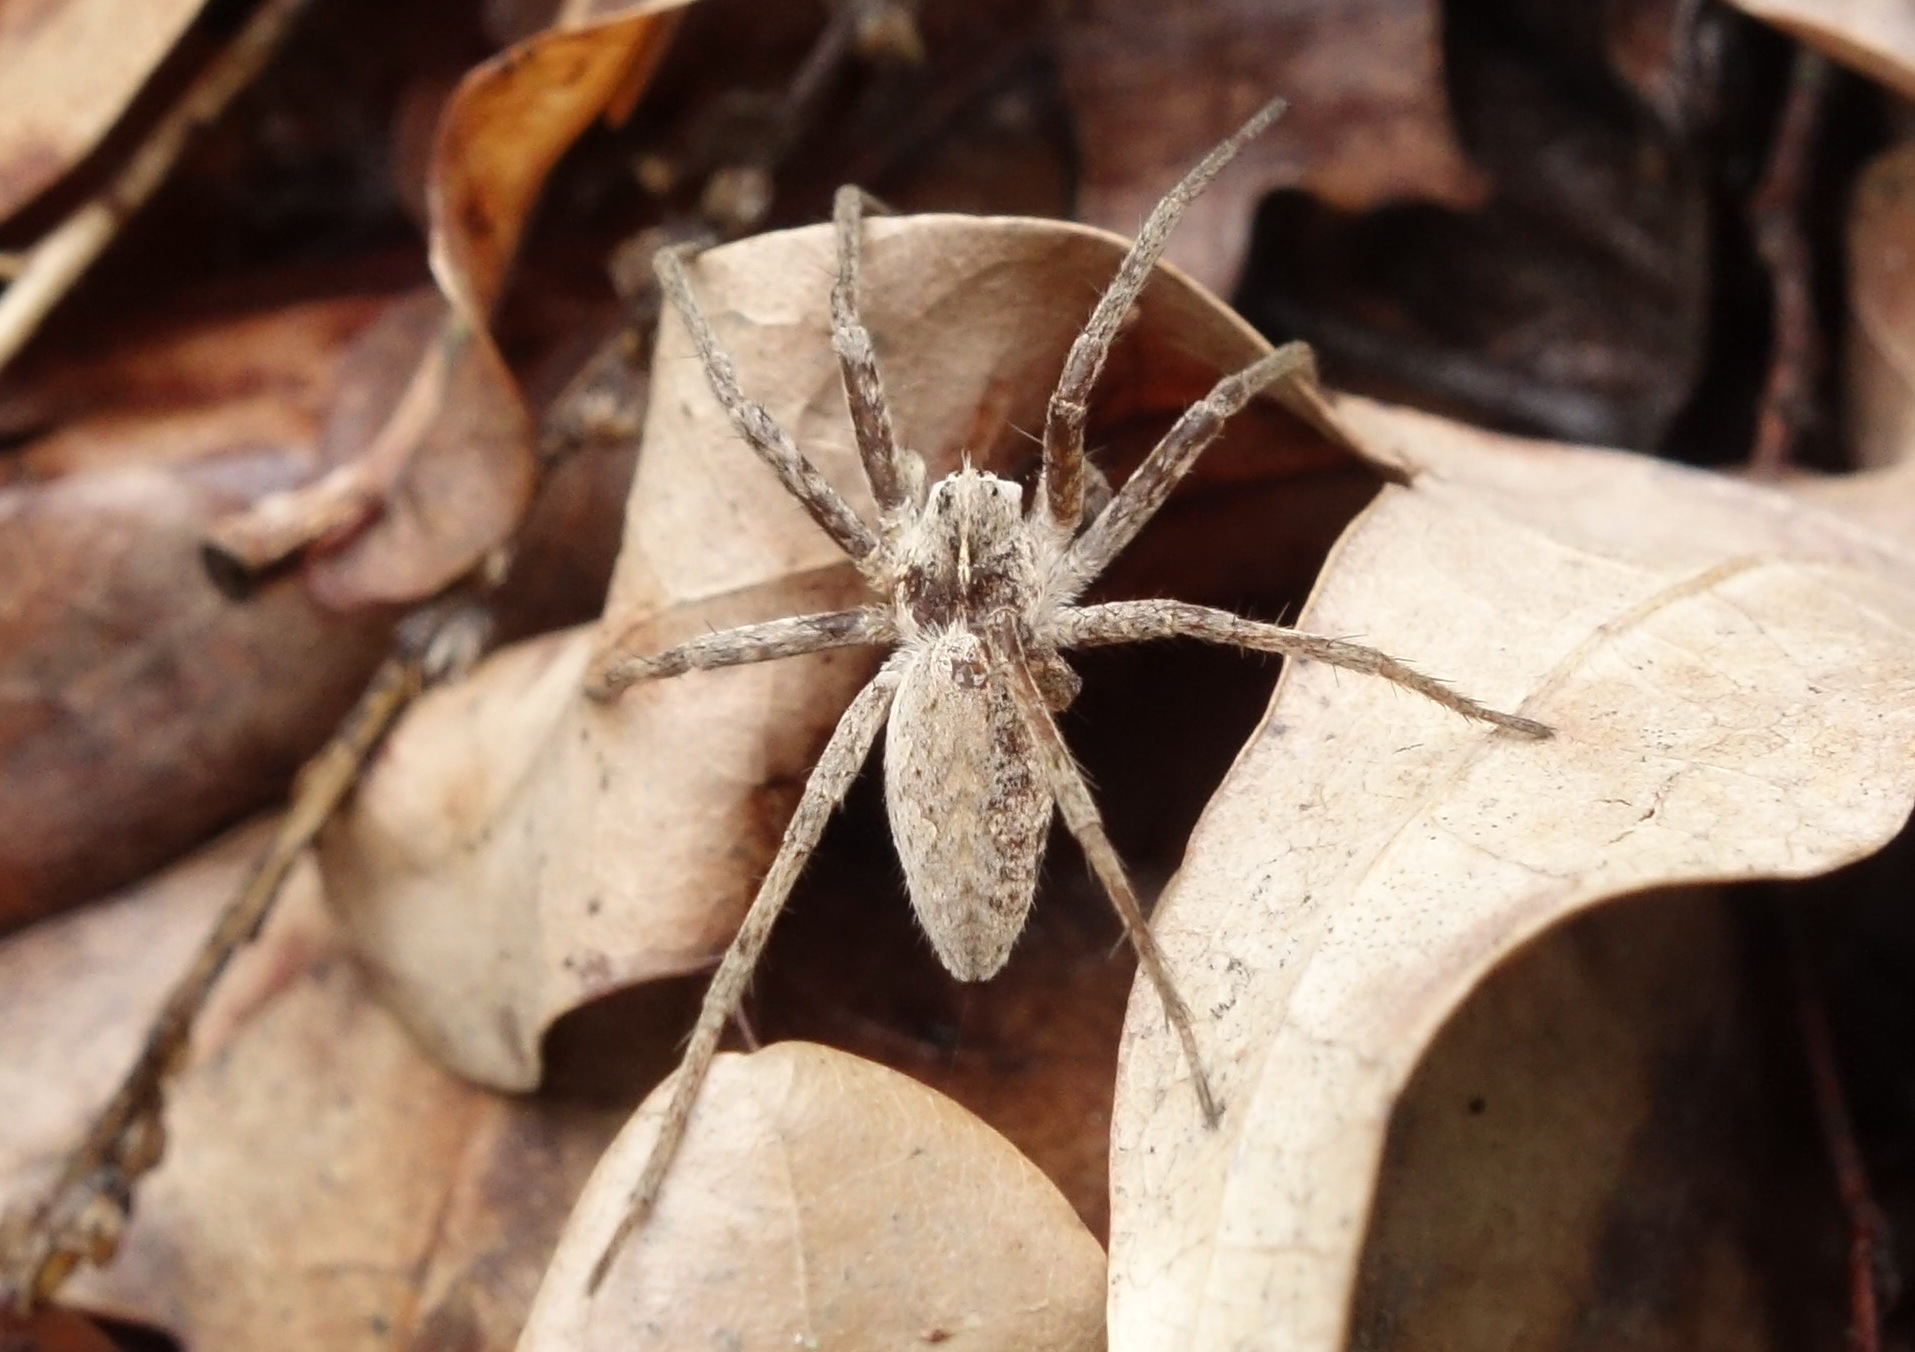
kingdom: Animalia
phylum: Arthropoda
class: Arachnida
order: Araneae
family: Pisauridae
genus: Pisaura
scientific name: Pisaura
